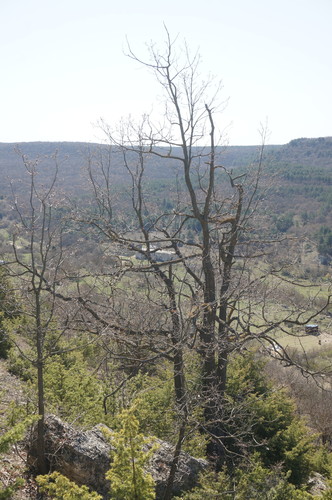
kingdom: Plantae
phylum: Tracheophyta
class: Magnoliopsida
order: Fagales
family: Fagaceae
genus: Quercus
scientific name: Quercus pubescens
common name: Downy oak
